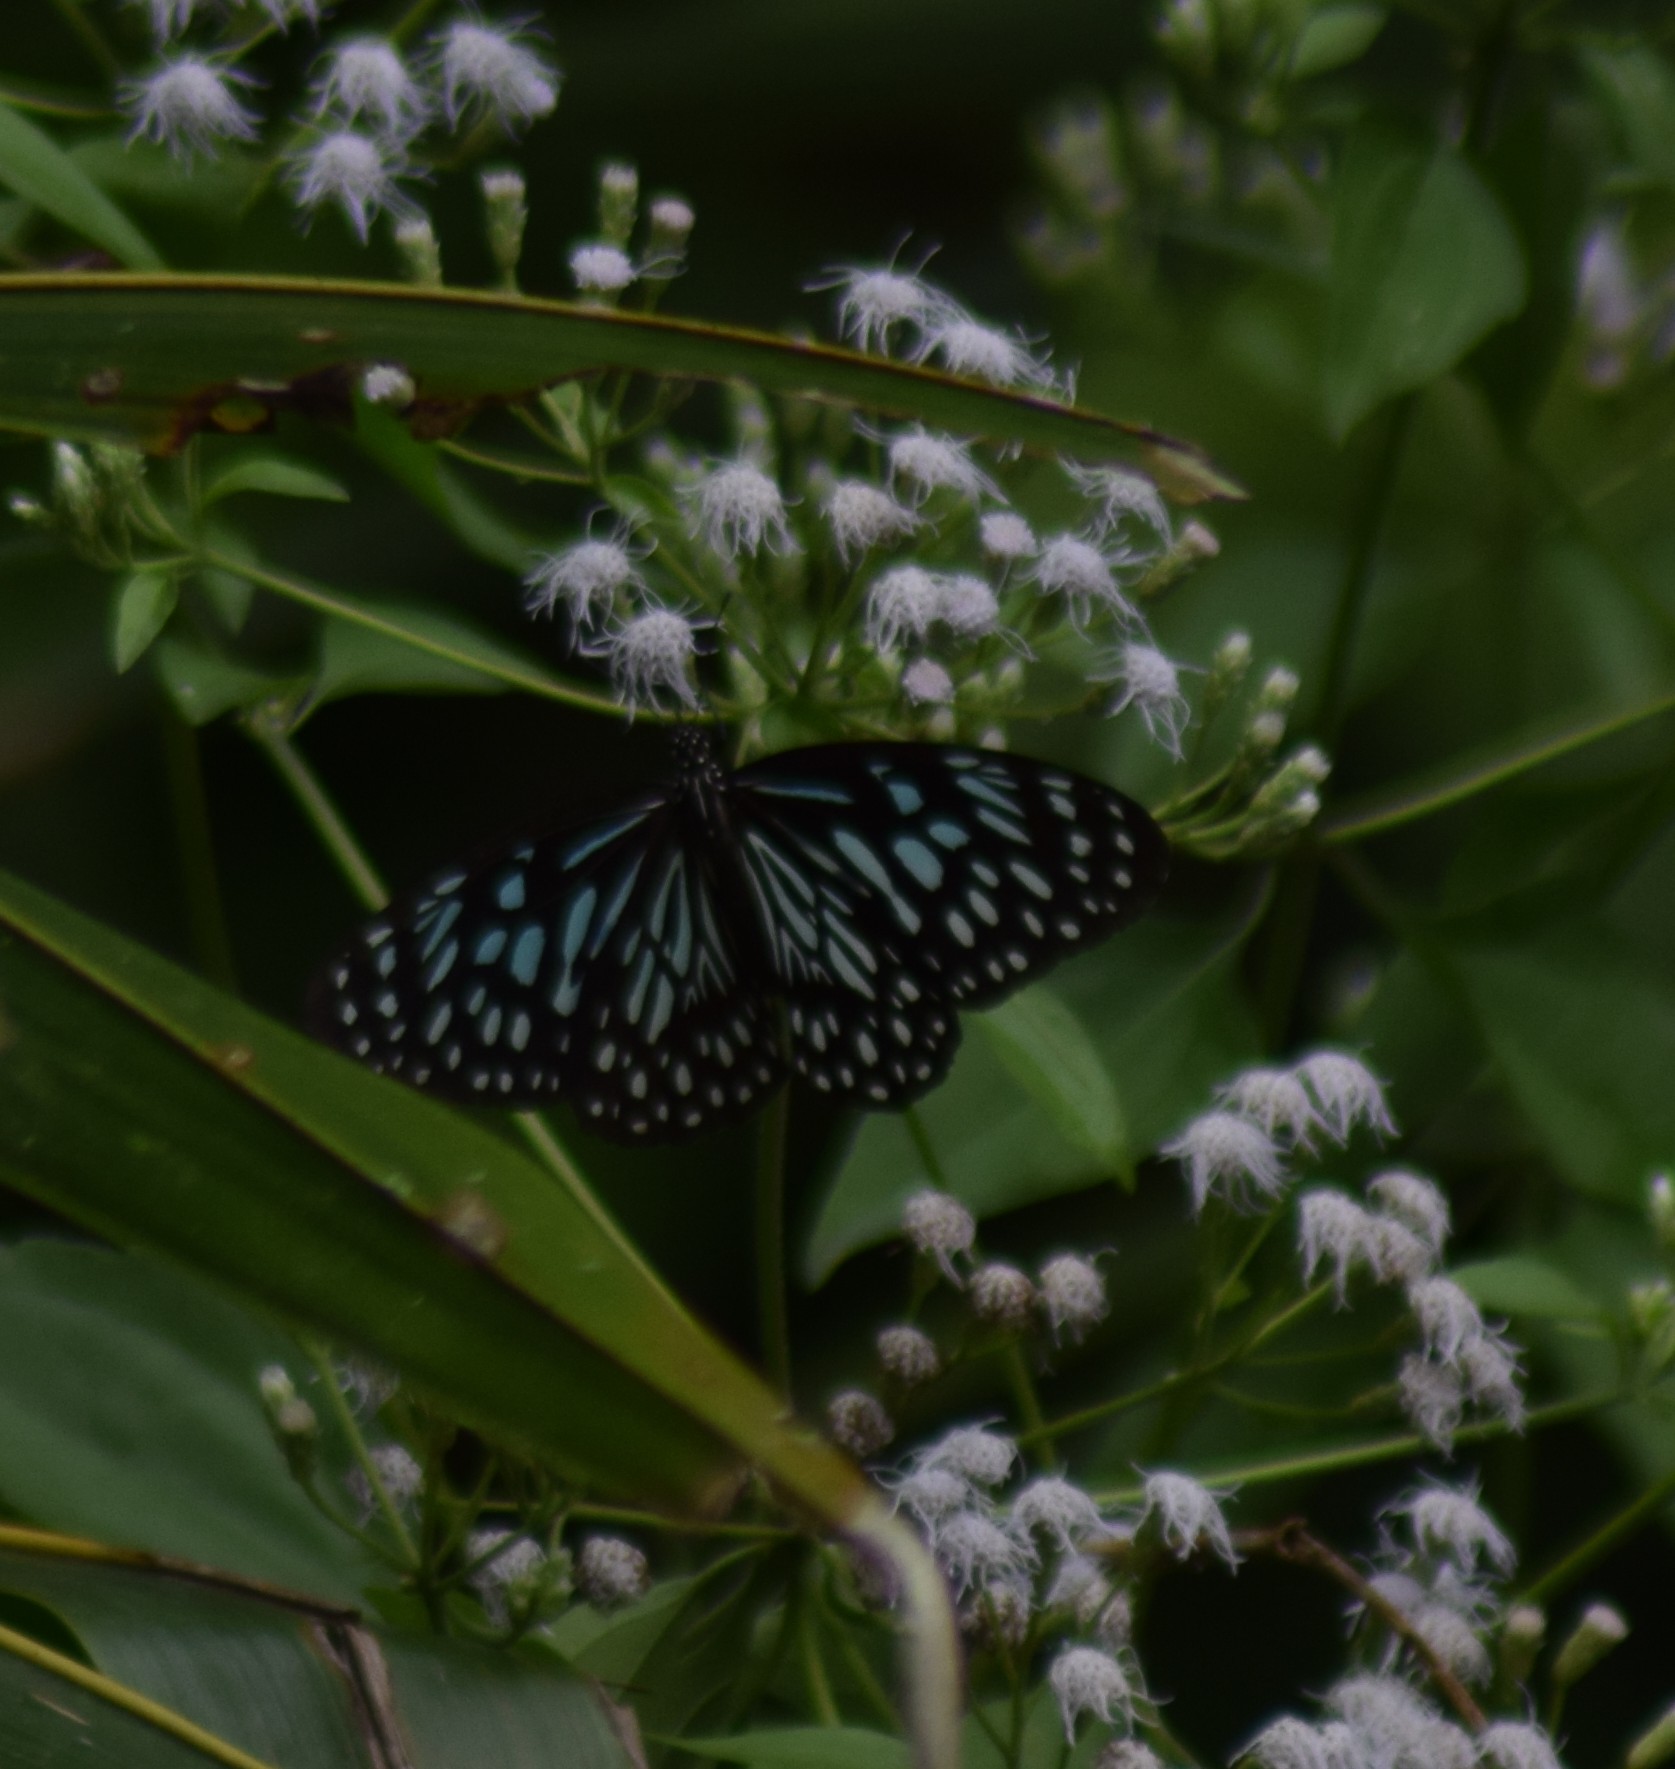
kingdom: Animalia
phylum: Arthropoda
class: Insecta
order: Lepidoptera
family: Nymphalidae
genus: Tirumala
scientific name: Tirumala septentrionis
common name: Dark blue tiger butterfly
